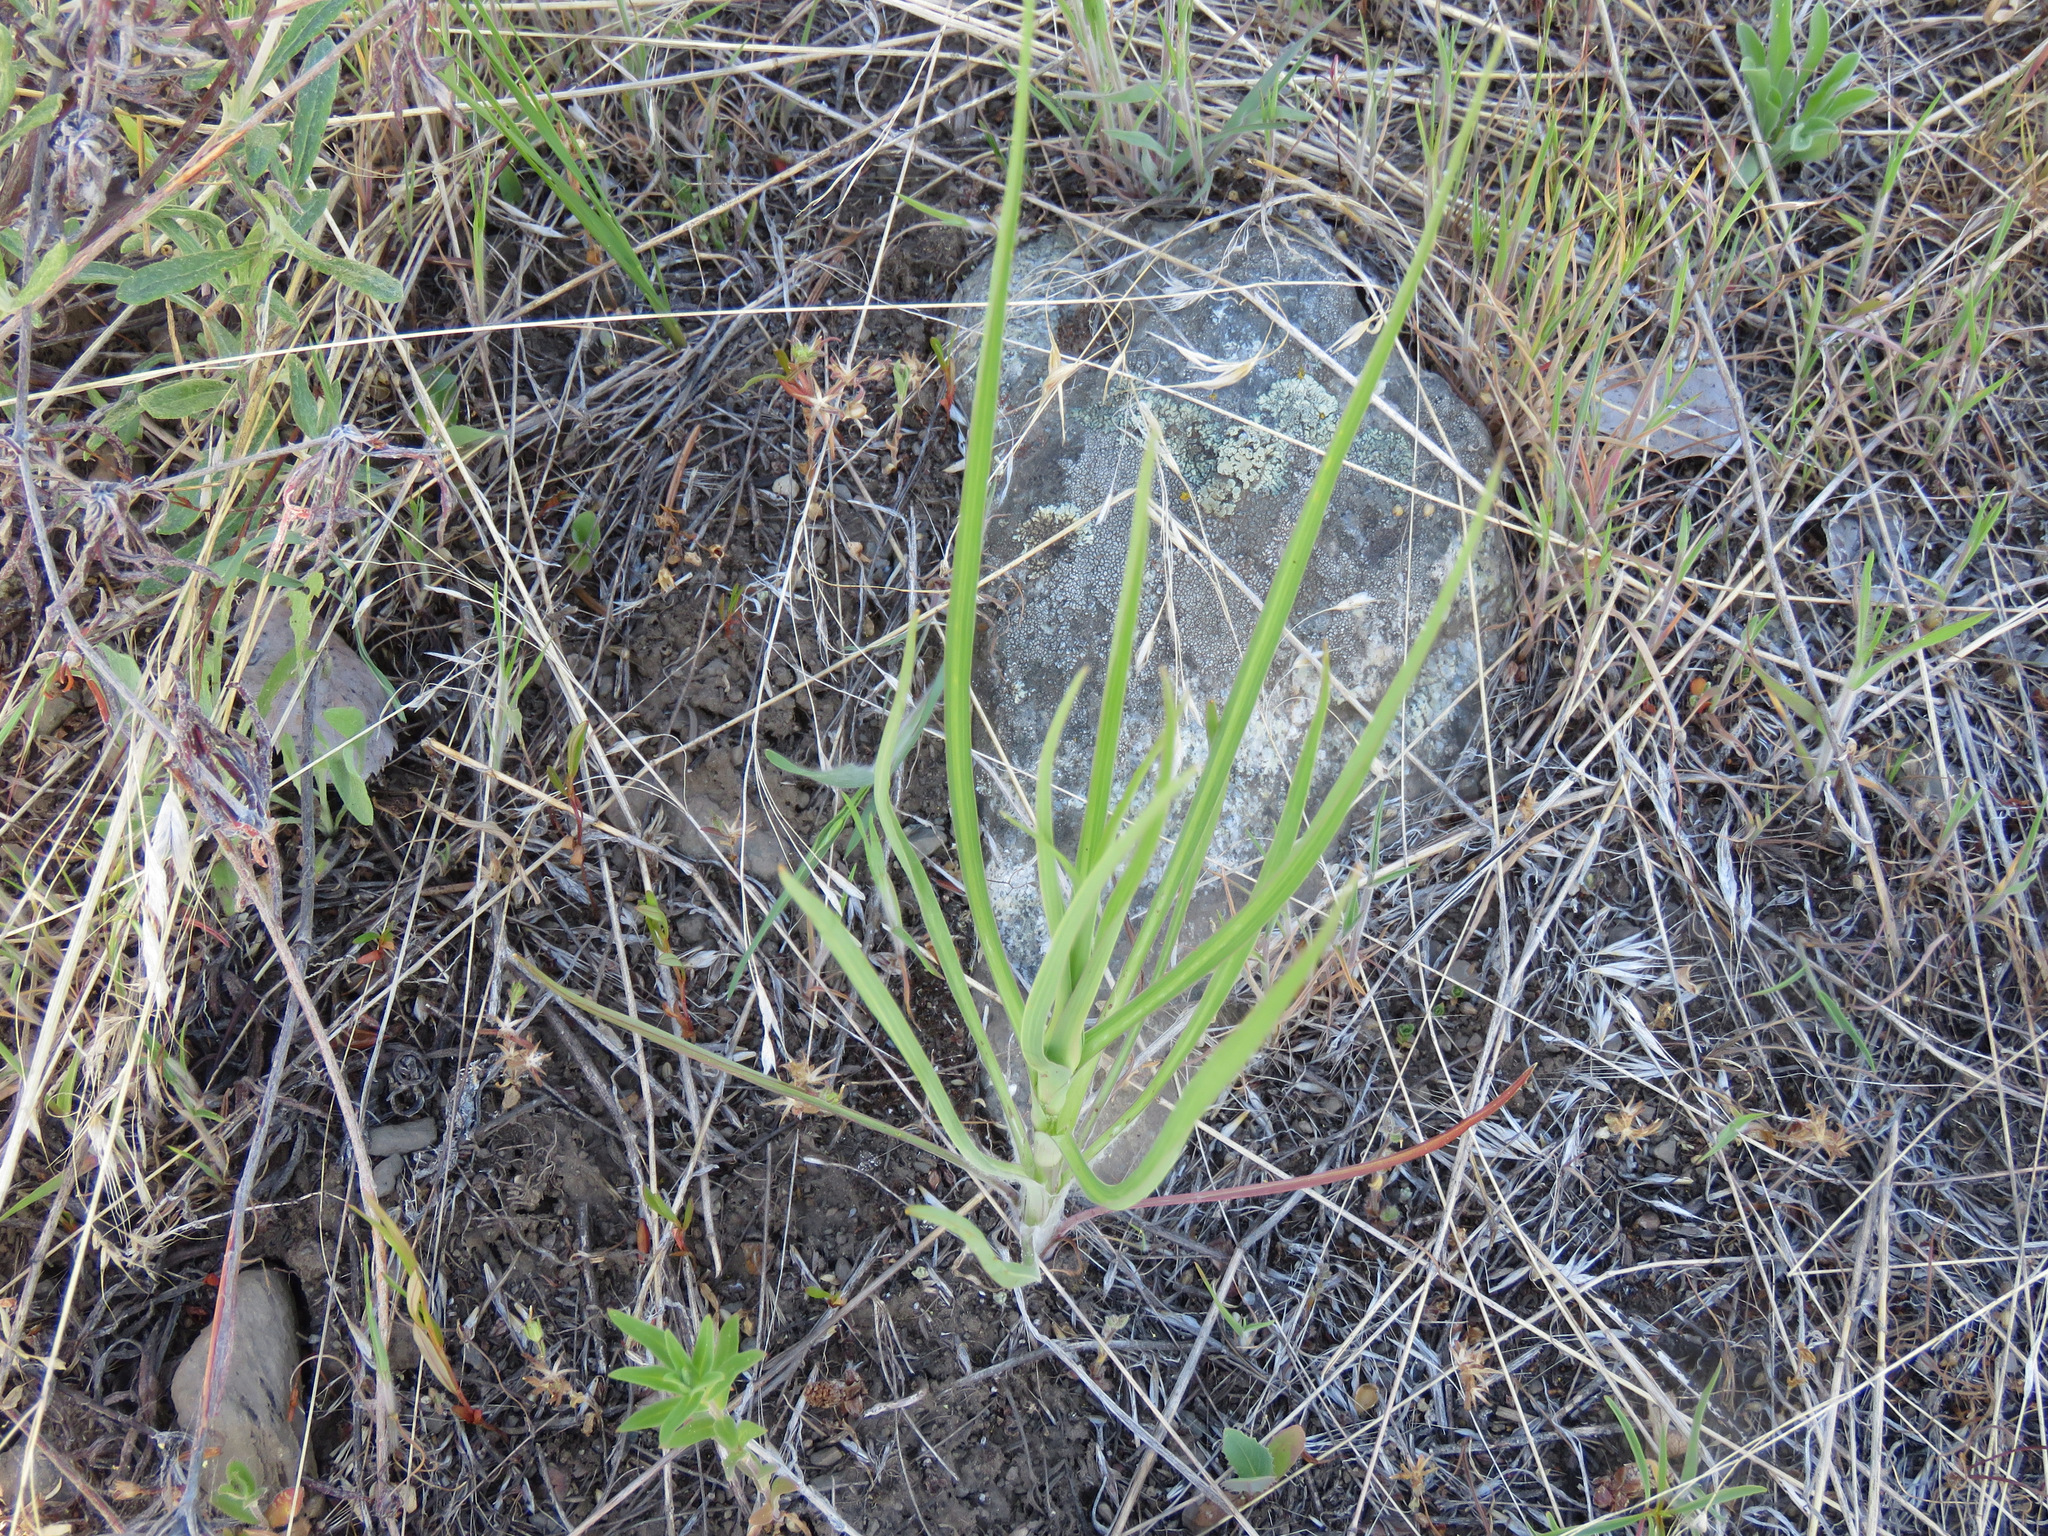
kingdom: Plantae
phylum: Tracheophyta
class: Magnoliopsida
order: Asterales
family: Asteraceae
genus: Tragopogon
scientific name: Tragopogon dubius
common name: Yellow salsify
